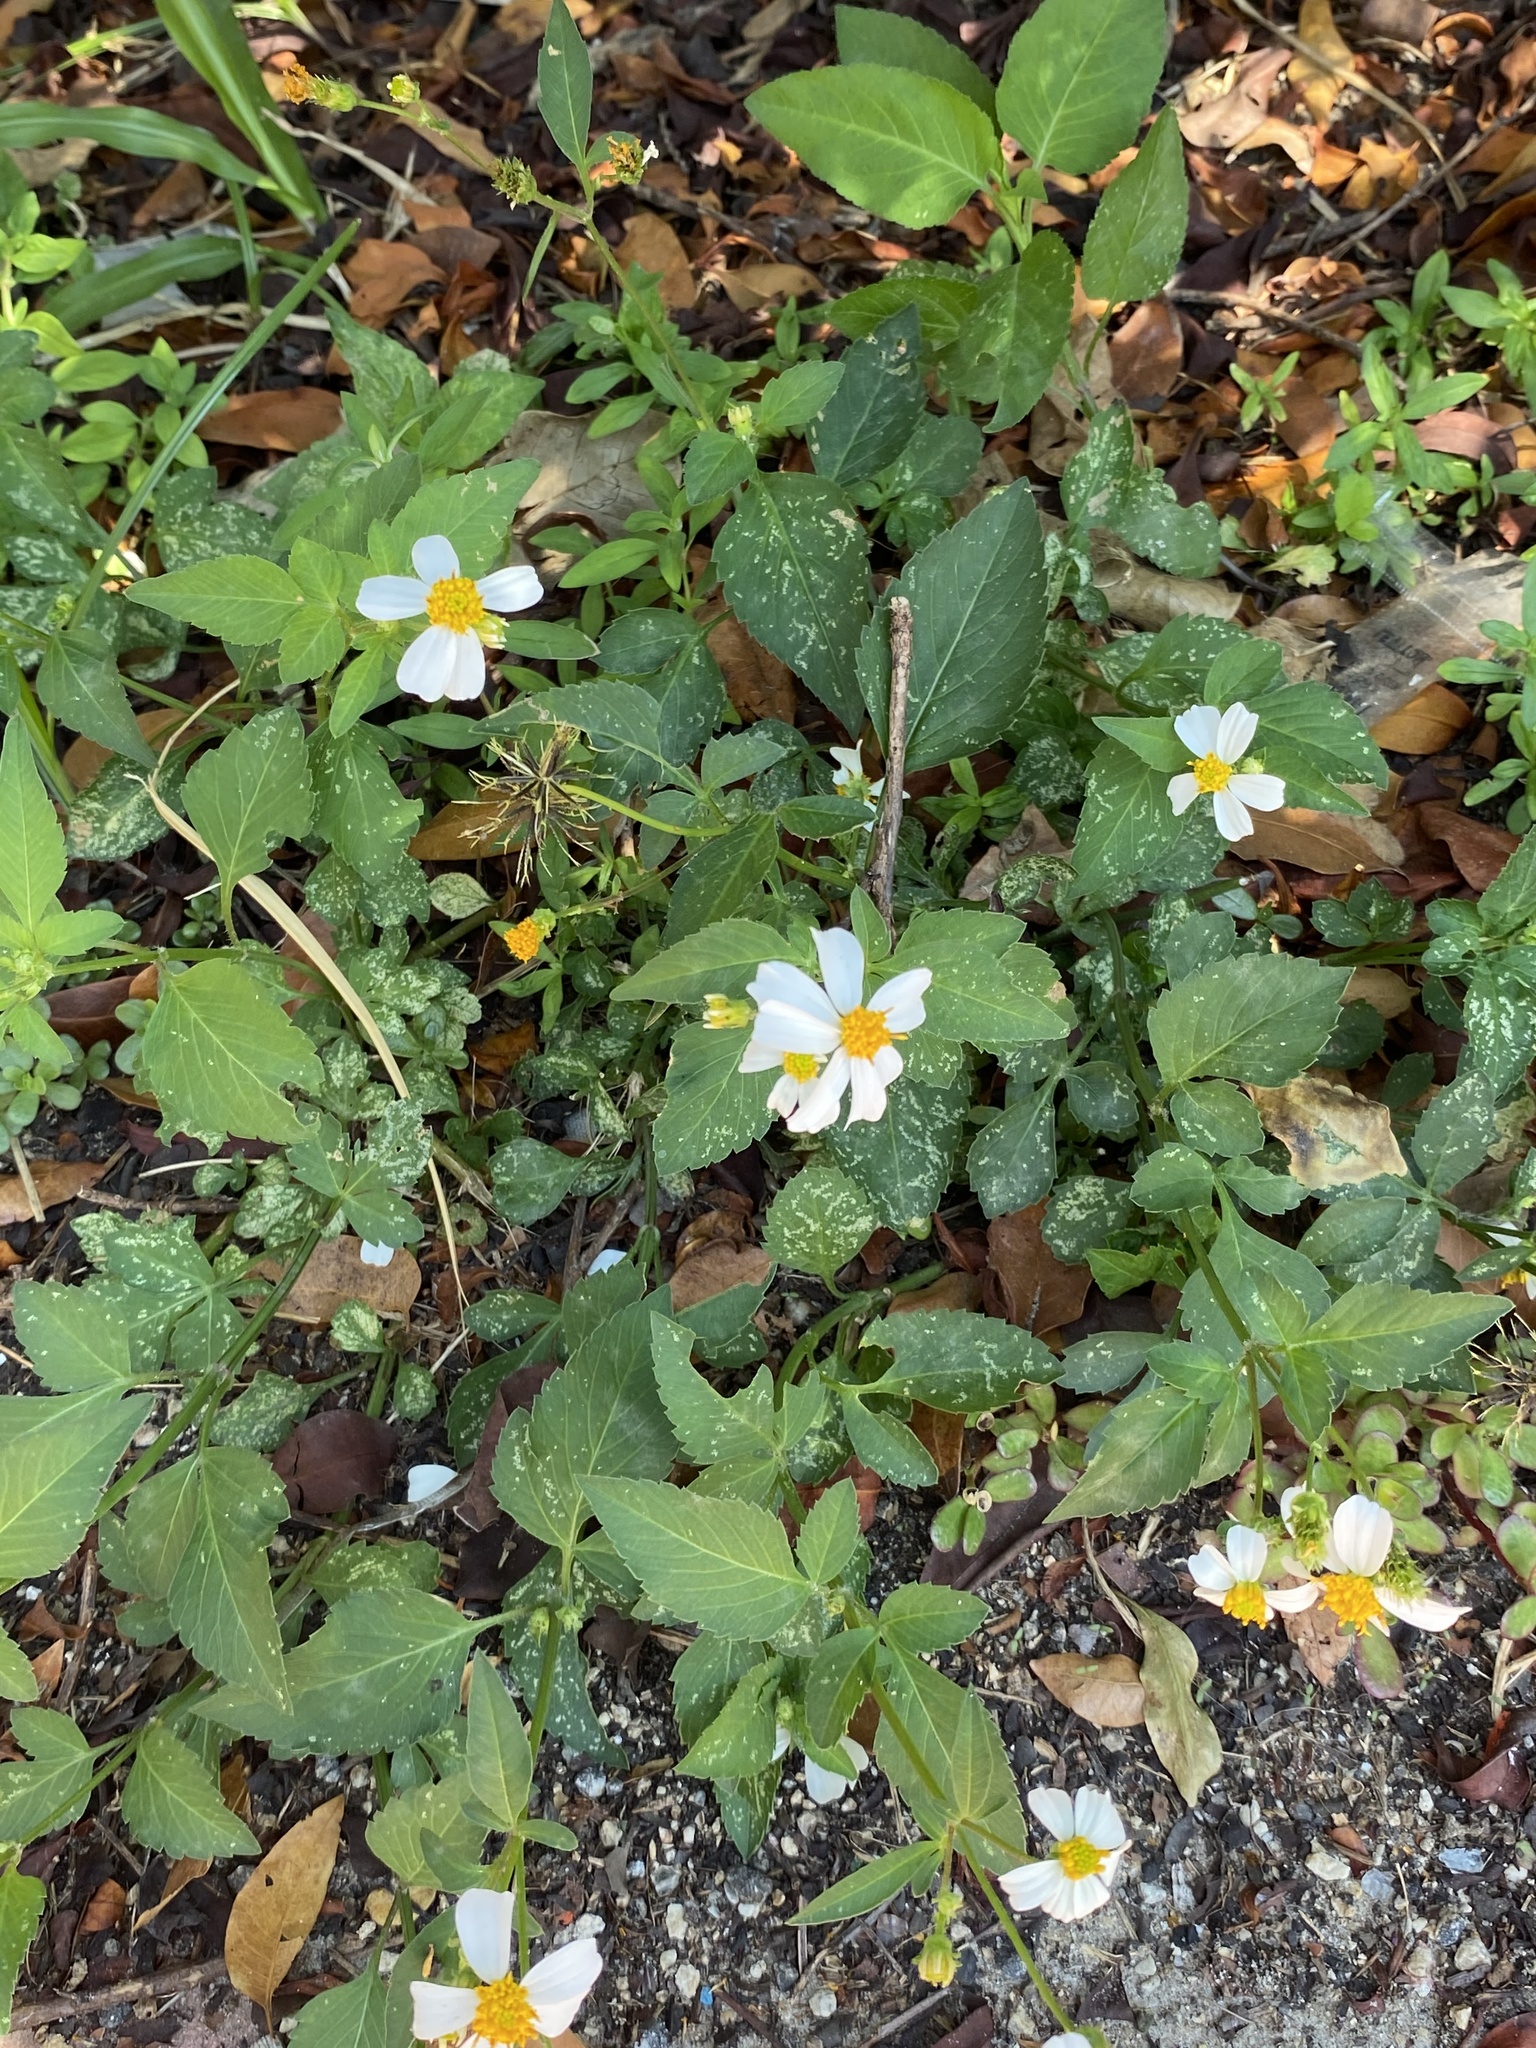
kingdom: Plantae
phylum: Tracheophyta
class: Magnoliopsida
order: Asterales
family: Asteraceae
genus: Bidens
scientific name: Bidens alba
